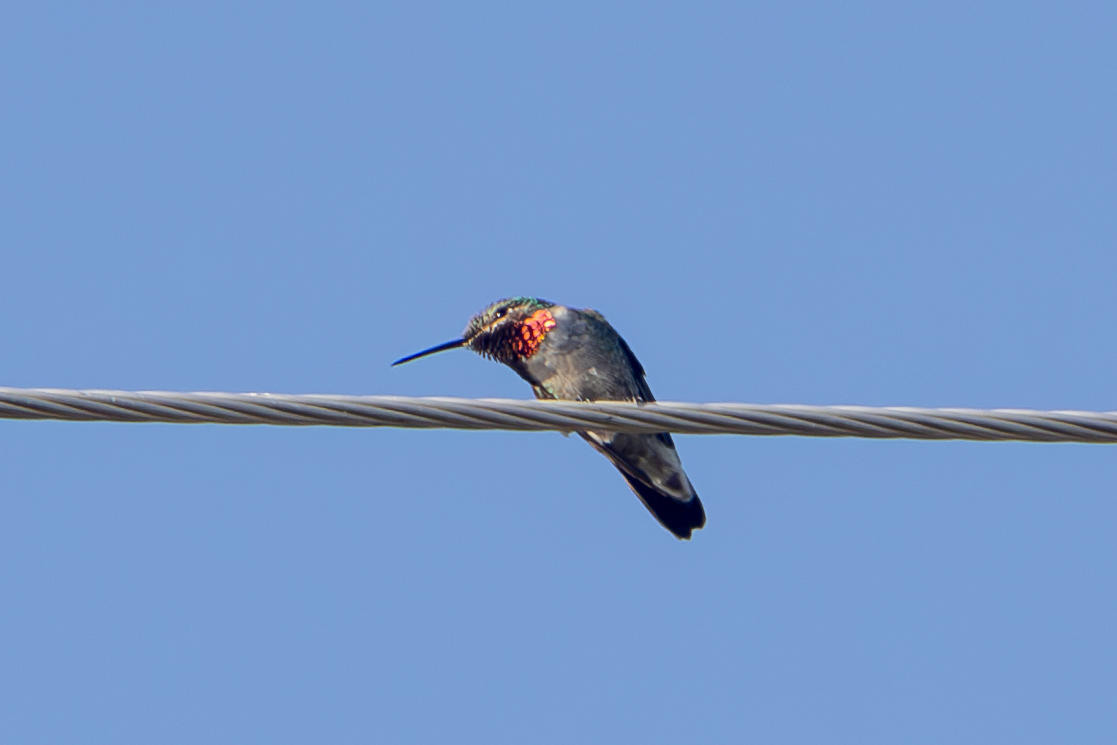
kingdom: Animalia
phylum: Chordata
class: Aves
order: Apodiformes
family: Trochilidae
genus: Selasphorus
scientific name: Selasphorus platycercus
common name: Broad-tailed hummingbird
